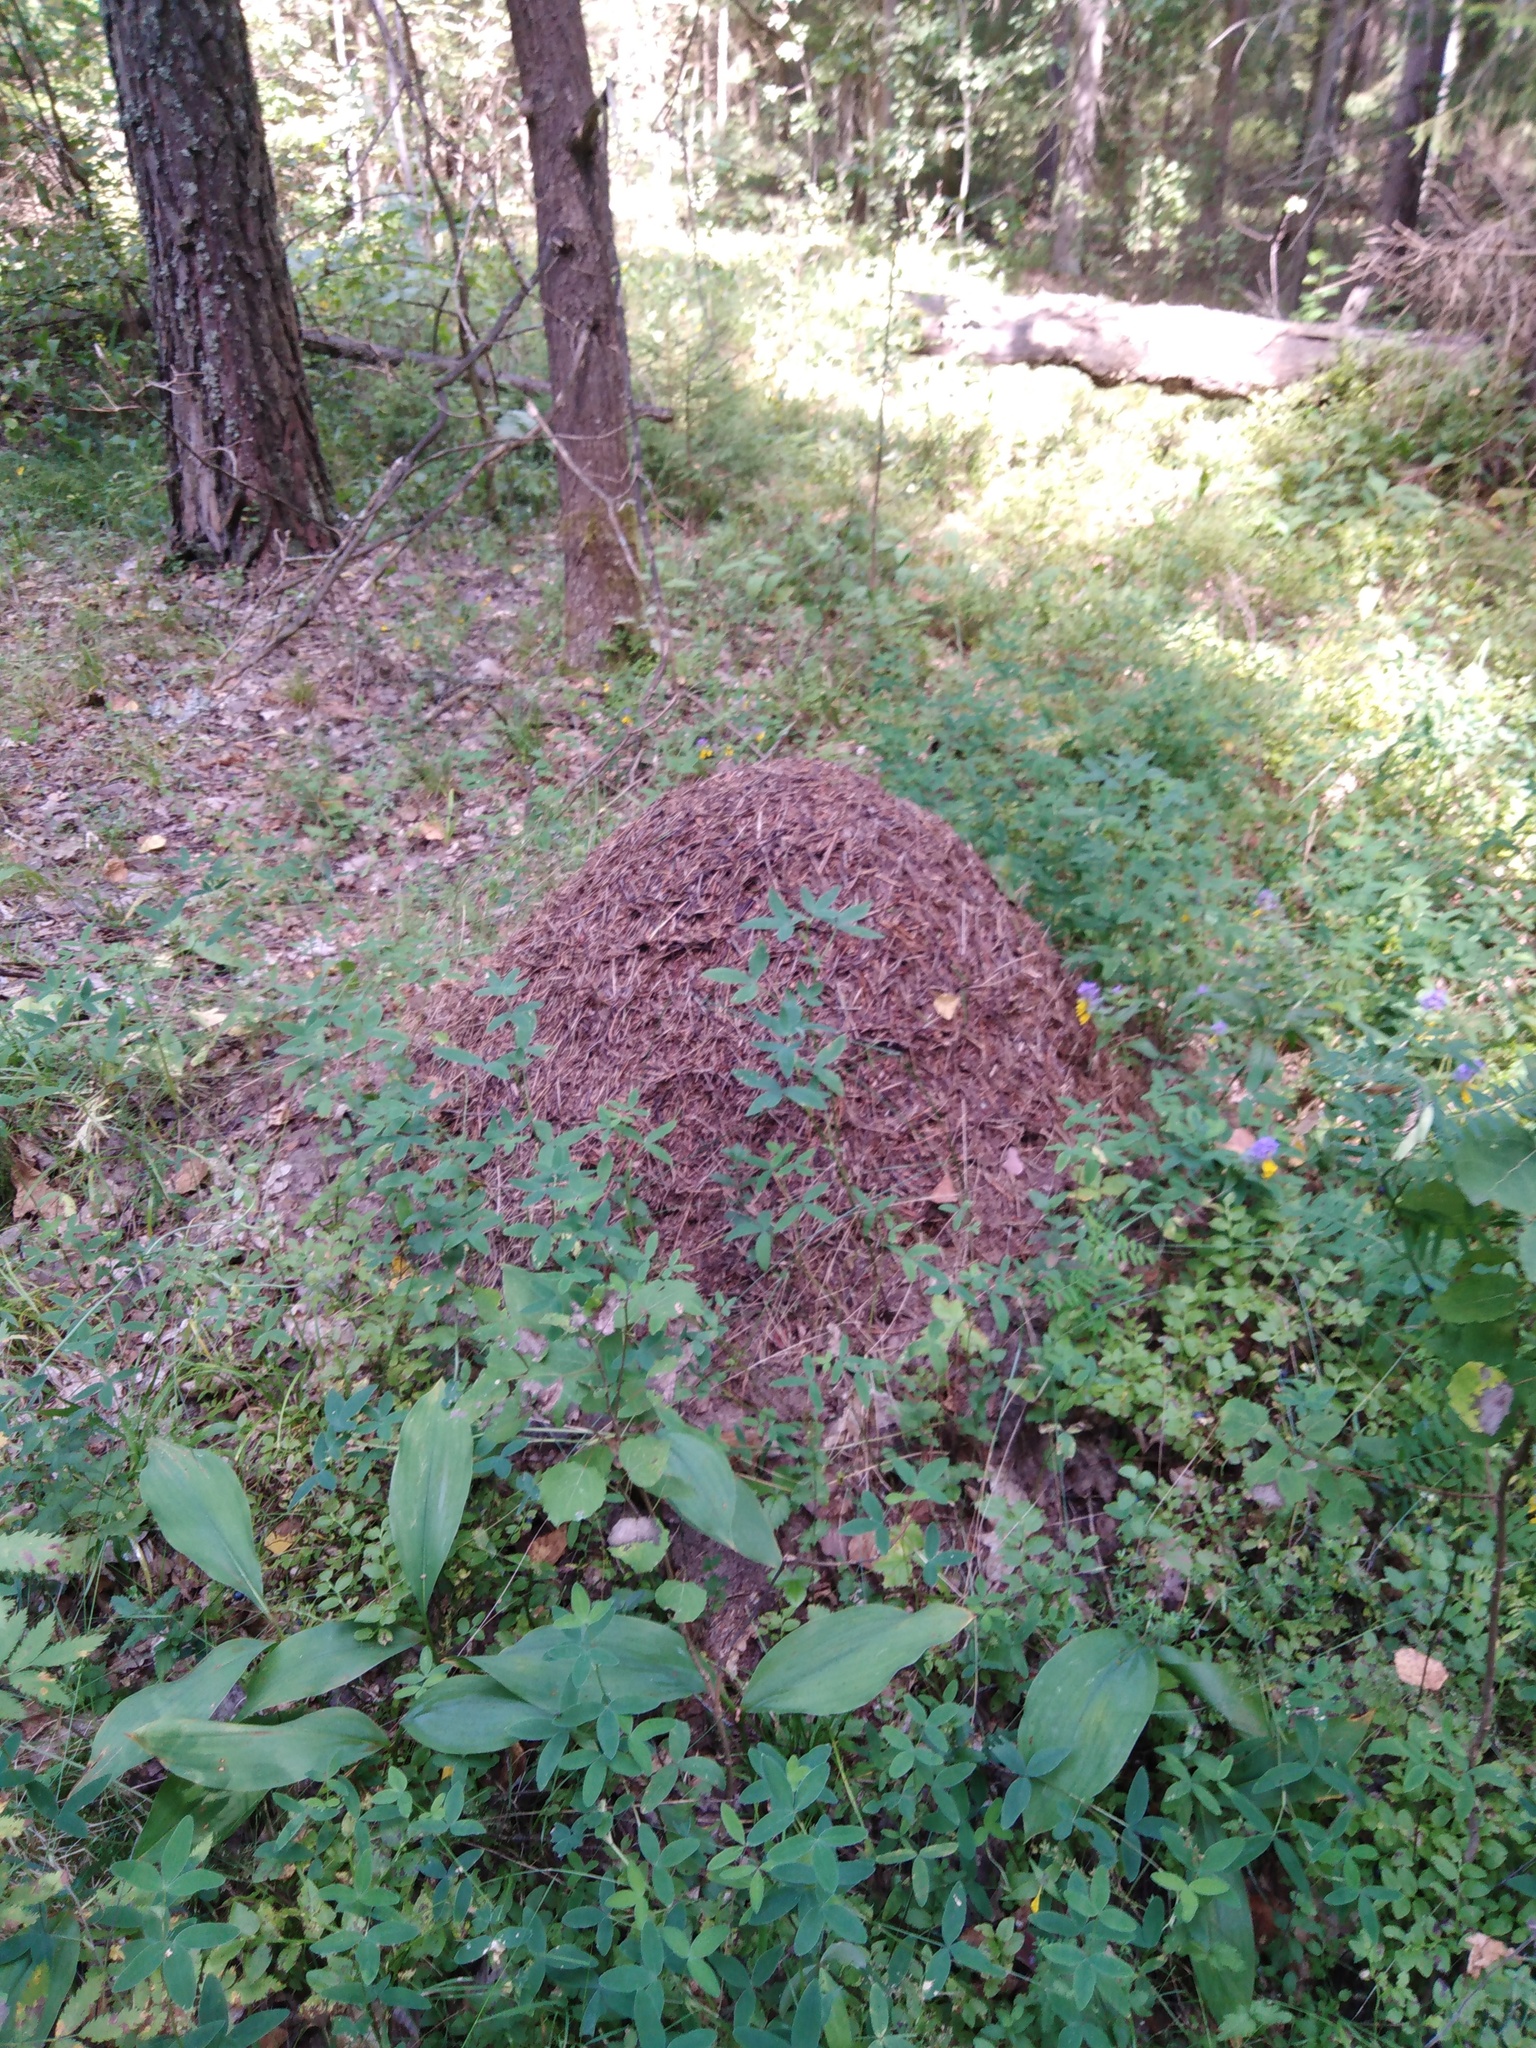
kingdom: Animalia
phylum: Arthropoda
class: Insecta
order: Hymenoptera
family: Formicidae
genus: Formica
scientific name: Formica
